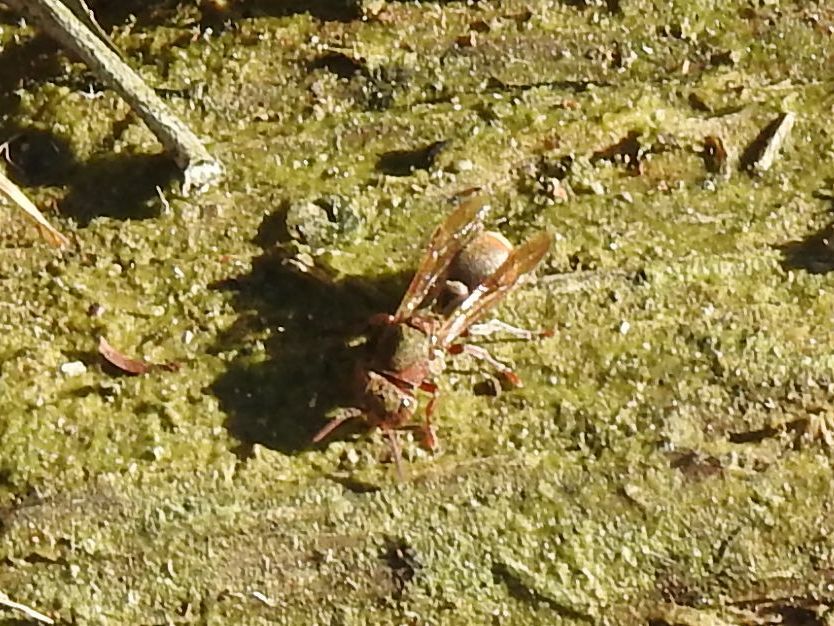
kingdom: Animalia
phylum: Arthropoda
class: Insecta
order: Hymenoptera
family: Vespidae
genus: Ropalidia
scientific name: Ropalidia capensis
